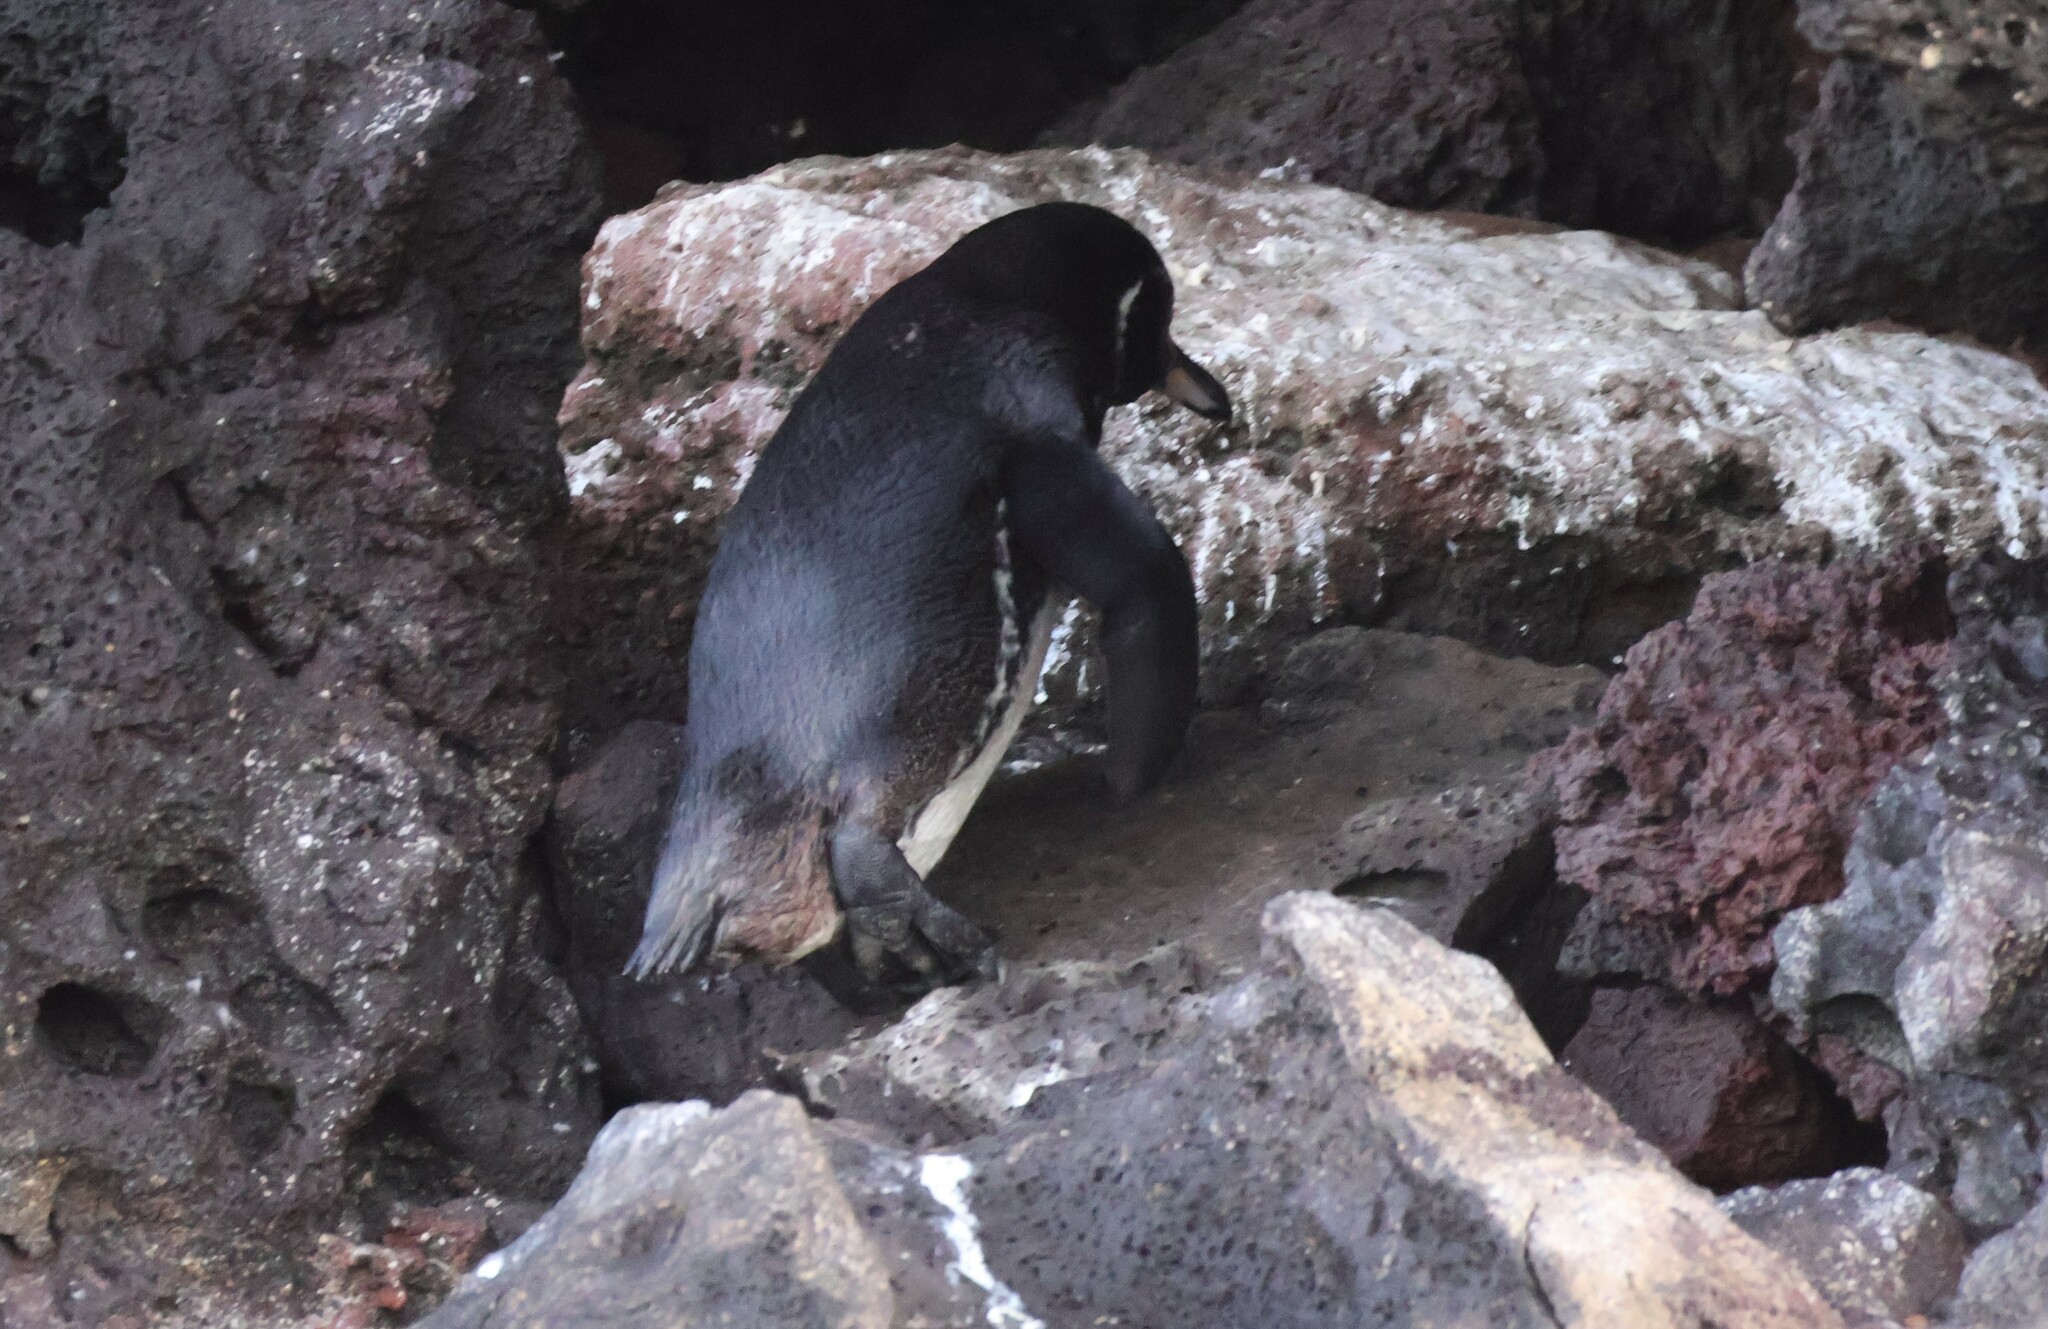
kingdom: Animalia
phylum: Chordata
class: Aves
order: Sphenisciformes
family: Spheniscidae
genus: Spheniscus
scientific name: Spheniscus mendiculus
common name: Galapagos penguin
